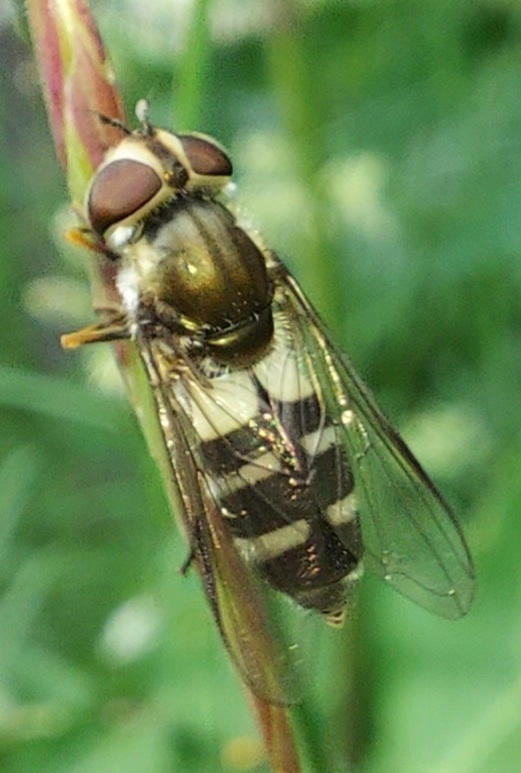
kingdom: Animalia
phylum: Arthropoda
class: Insecta
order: Diptera
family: Syrphidae
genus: Leucozona
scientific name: Leucozona laternaria
